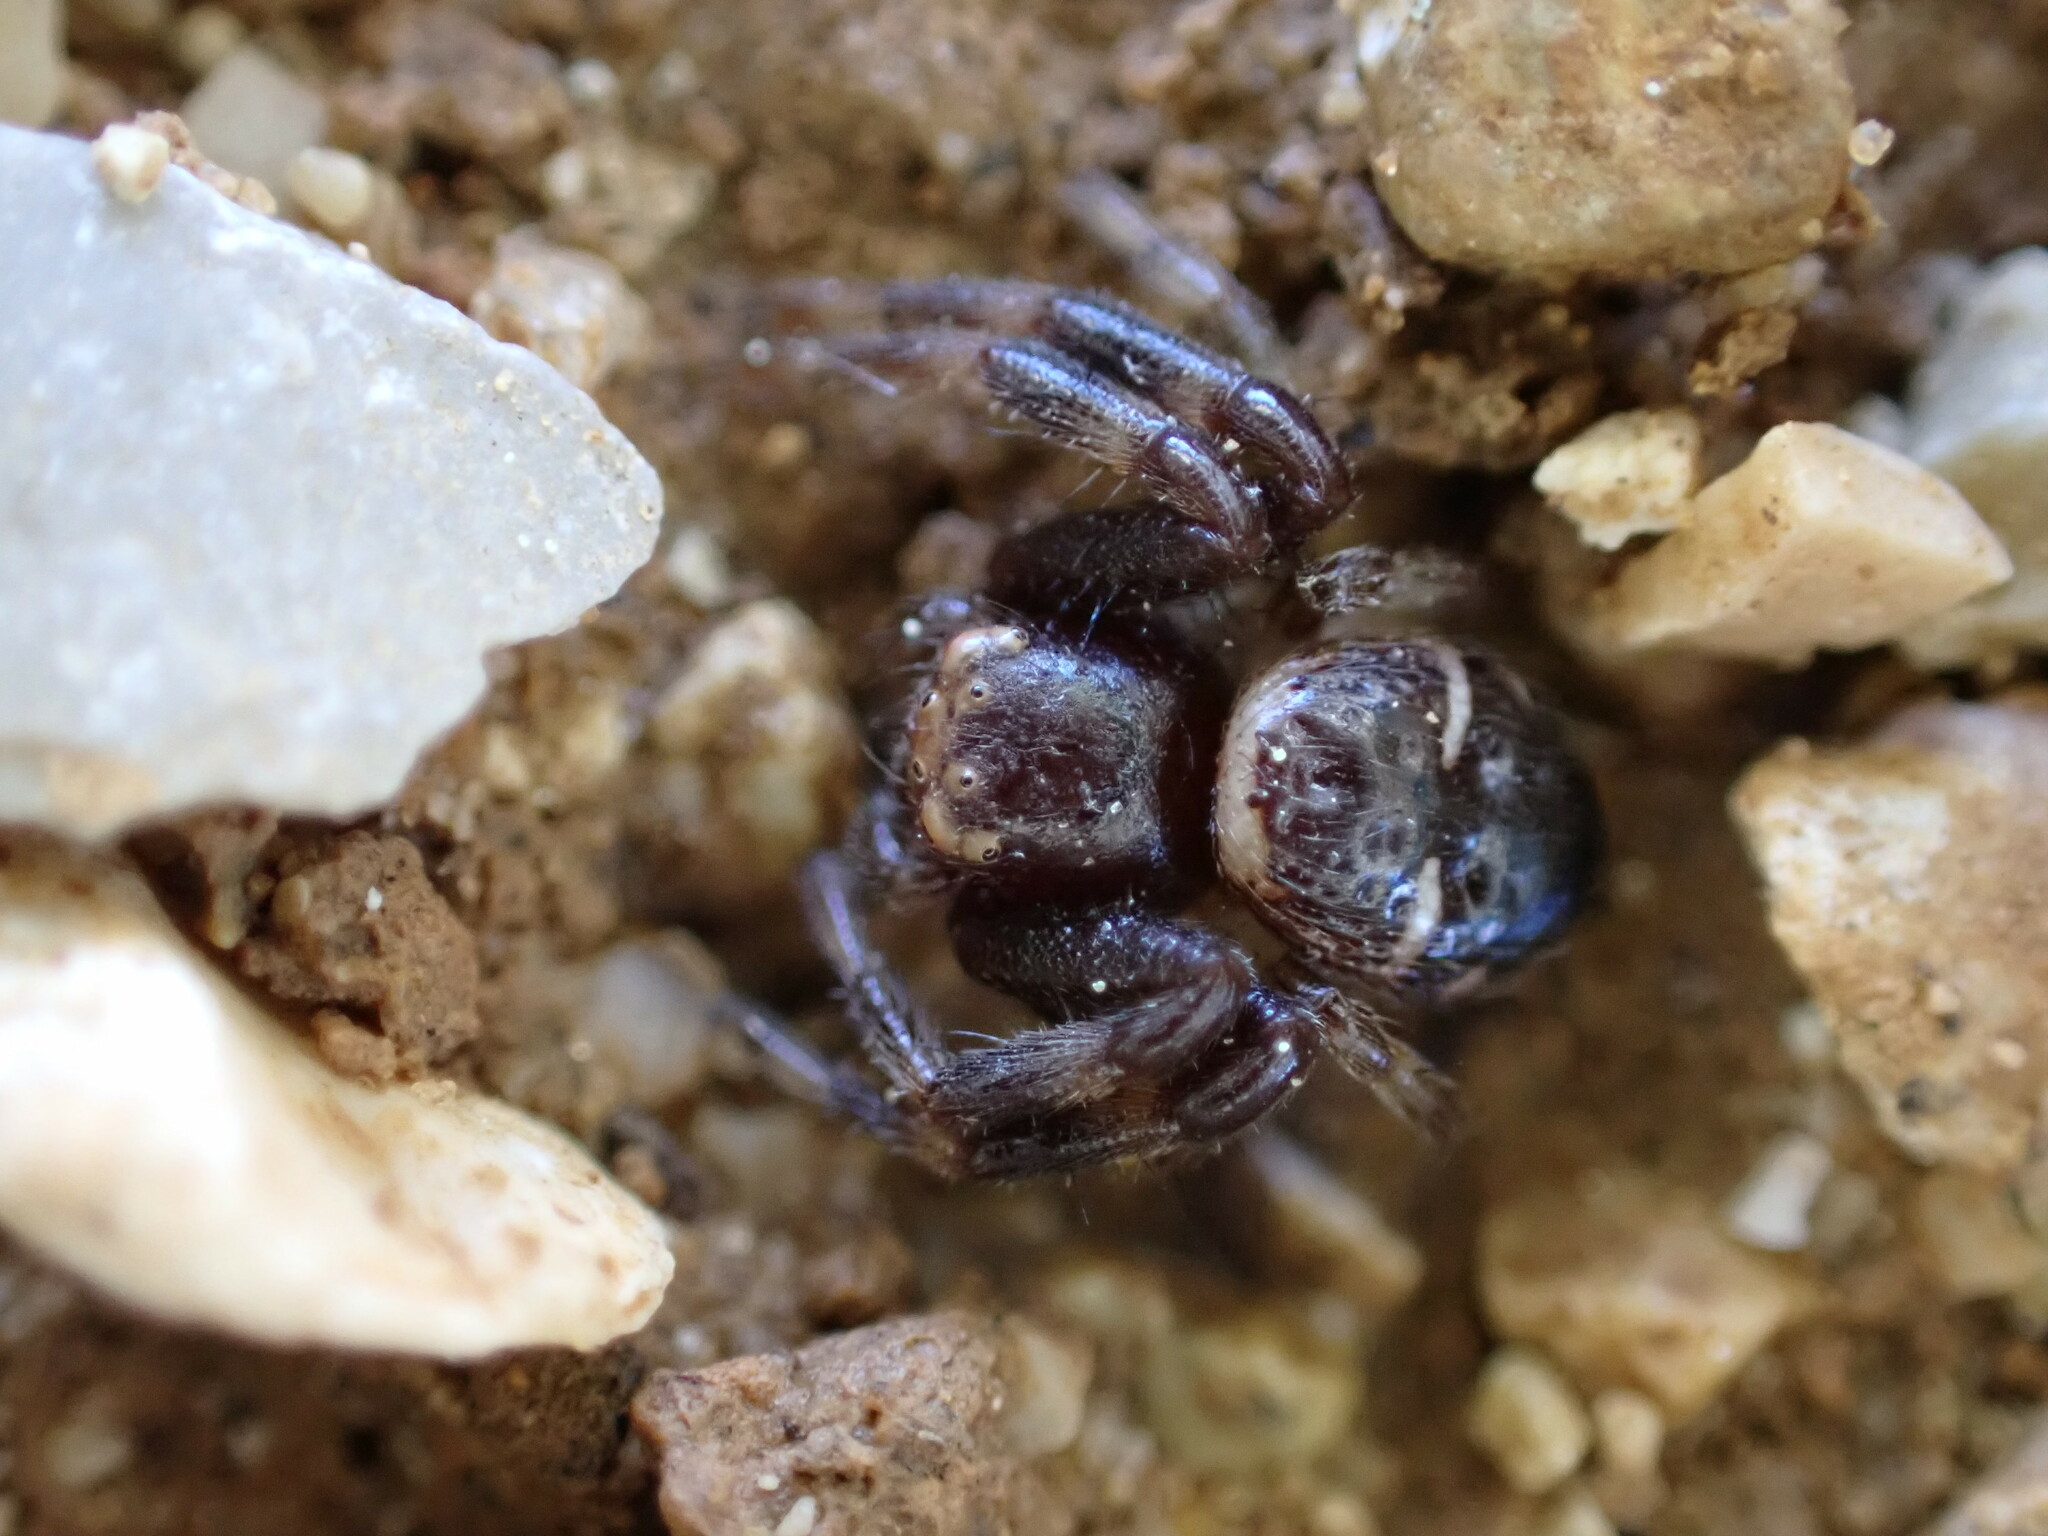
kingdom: Animalia
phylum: Arthropoda
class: Arachnida
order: Araneae
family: Thomisidae
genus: Synema
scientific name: Synema globosum
